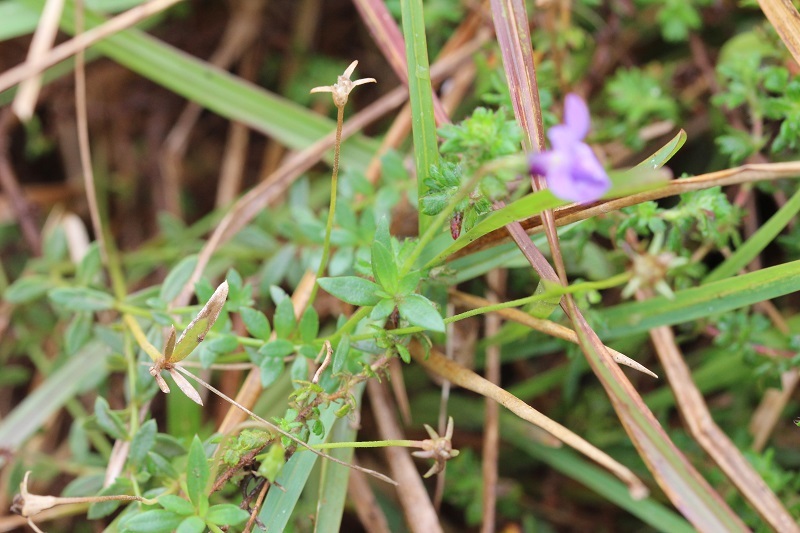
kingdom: Plantae
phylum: Tracheophyta
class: Magnoliopsida
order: Asterales
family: Campanulaceae
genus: Monopsis
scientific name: Monopsis unidentata
